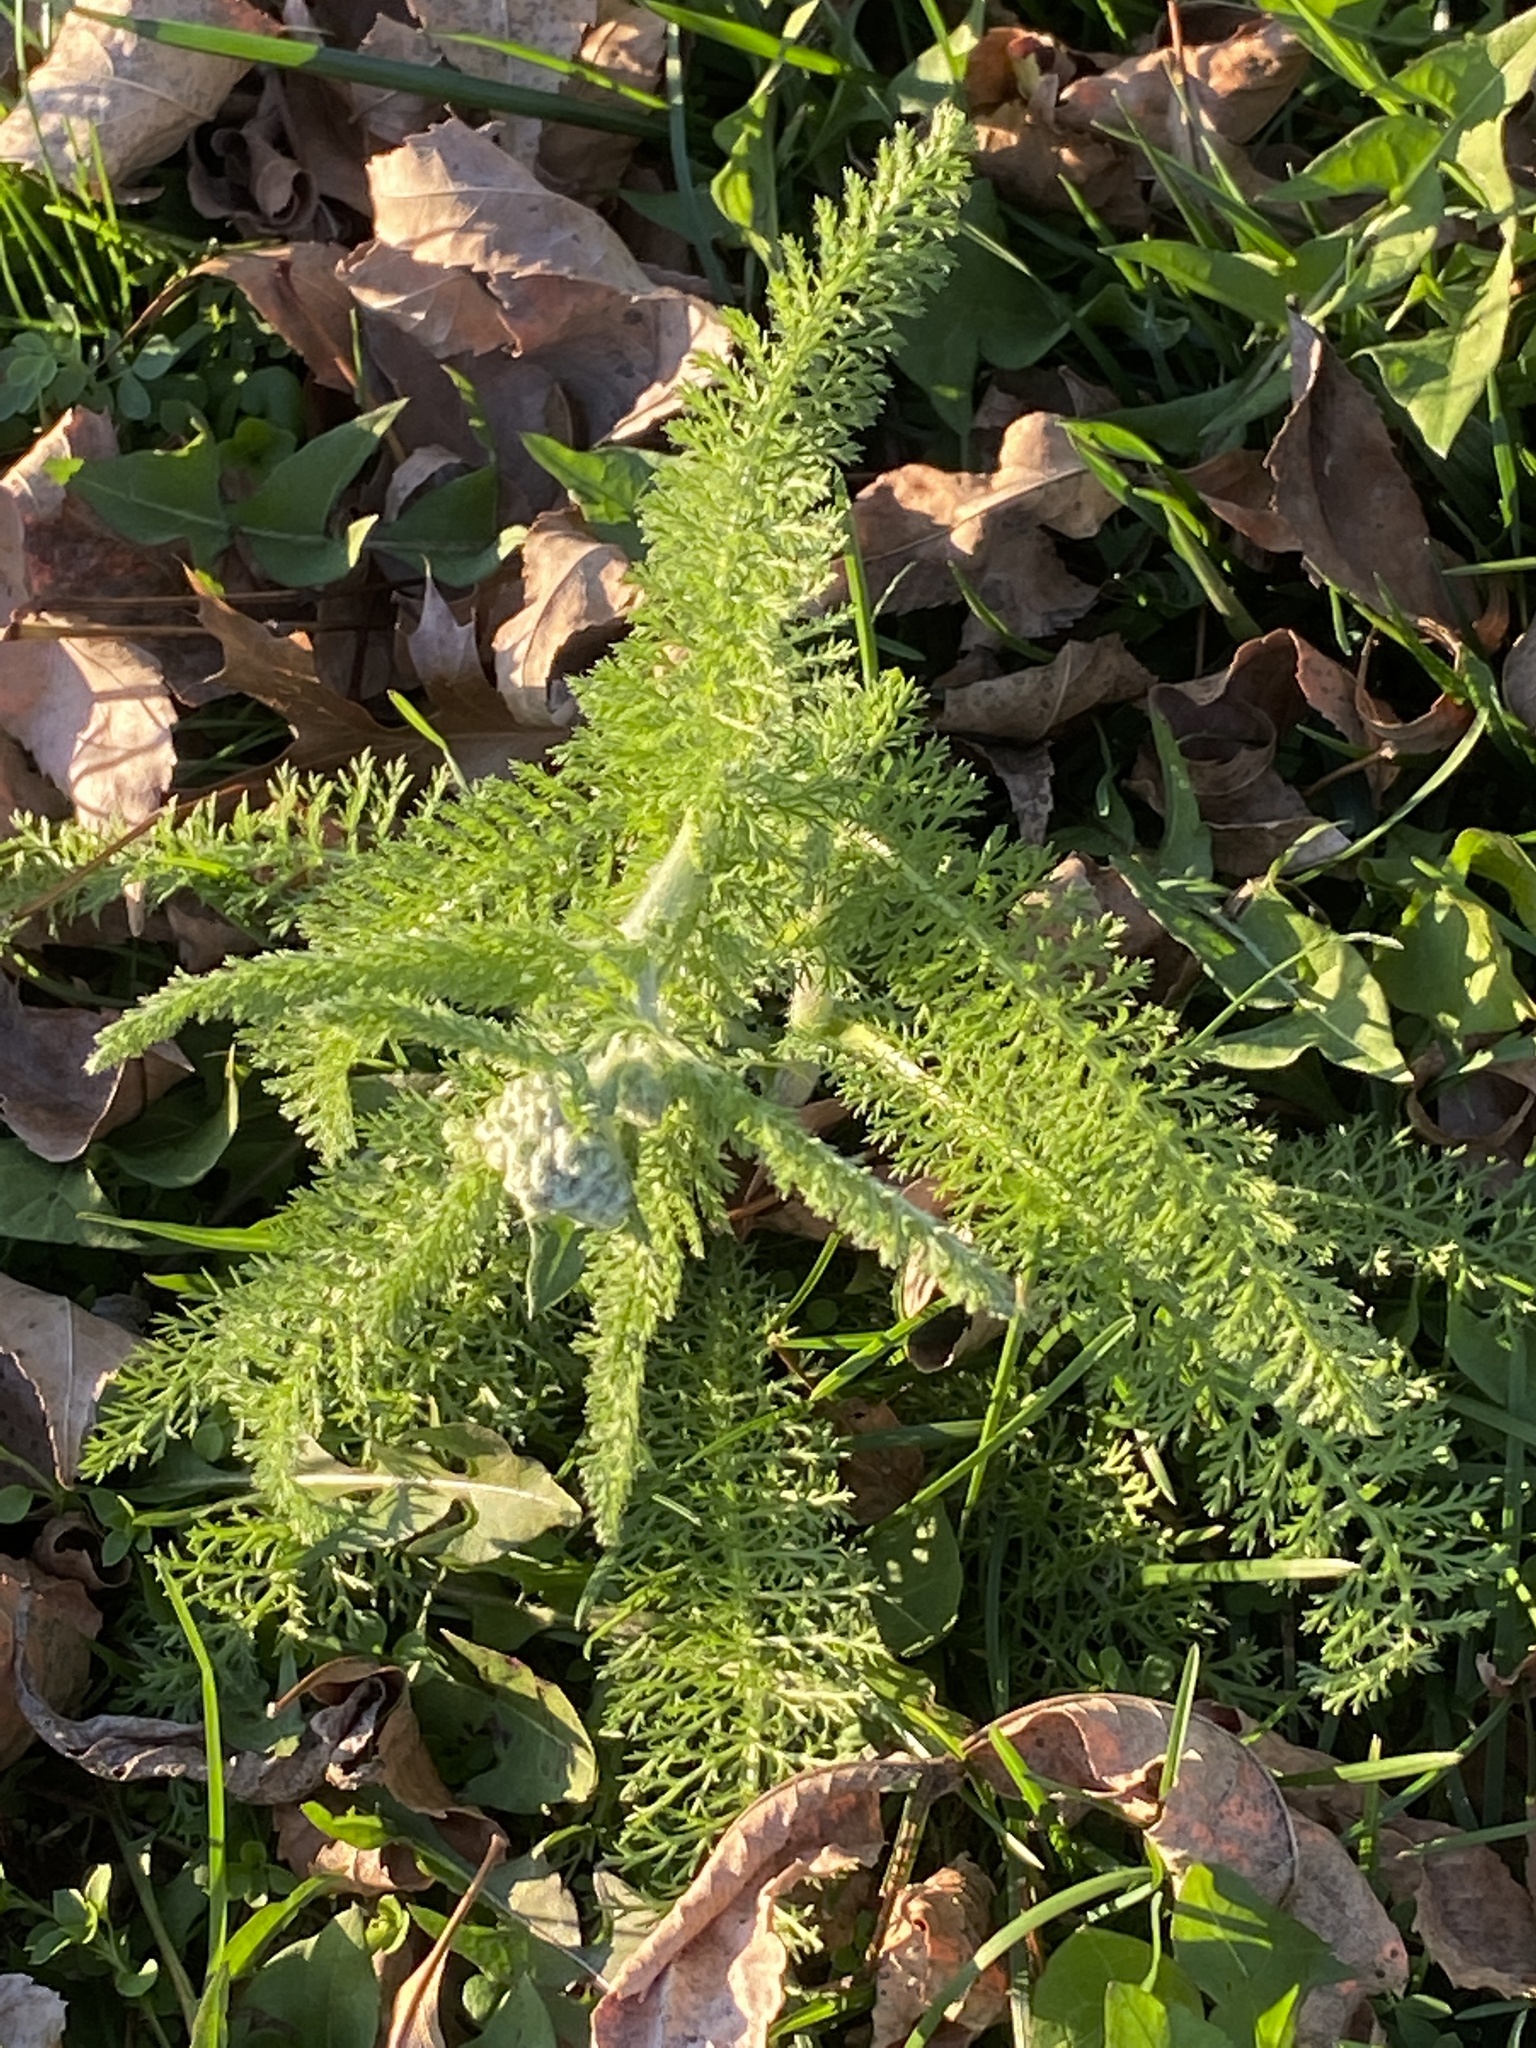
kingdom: Plantae
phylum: Tracheophyta
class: Magnoliopsida
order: Asterales
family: Asteraceae
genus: Achillea
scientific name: Achillea millefolium
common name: Yarrow
